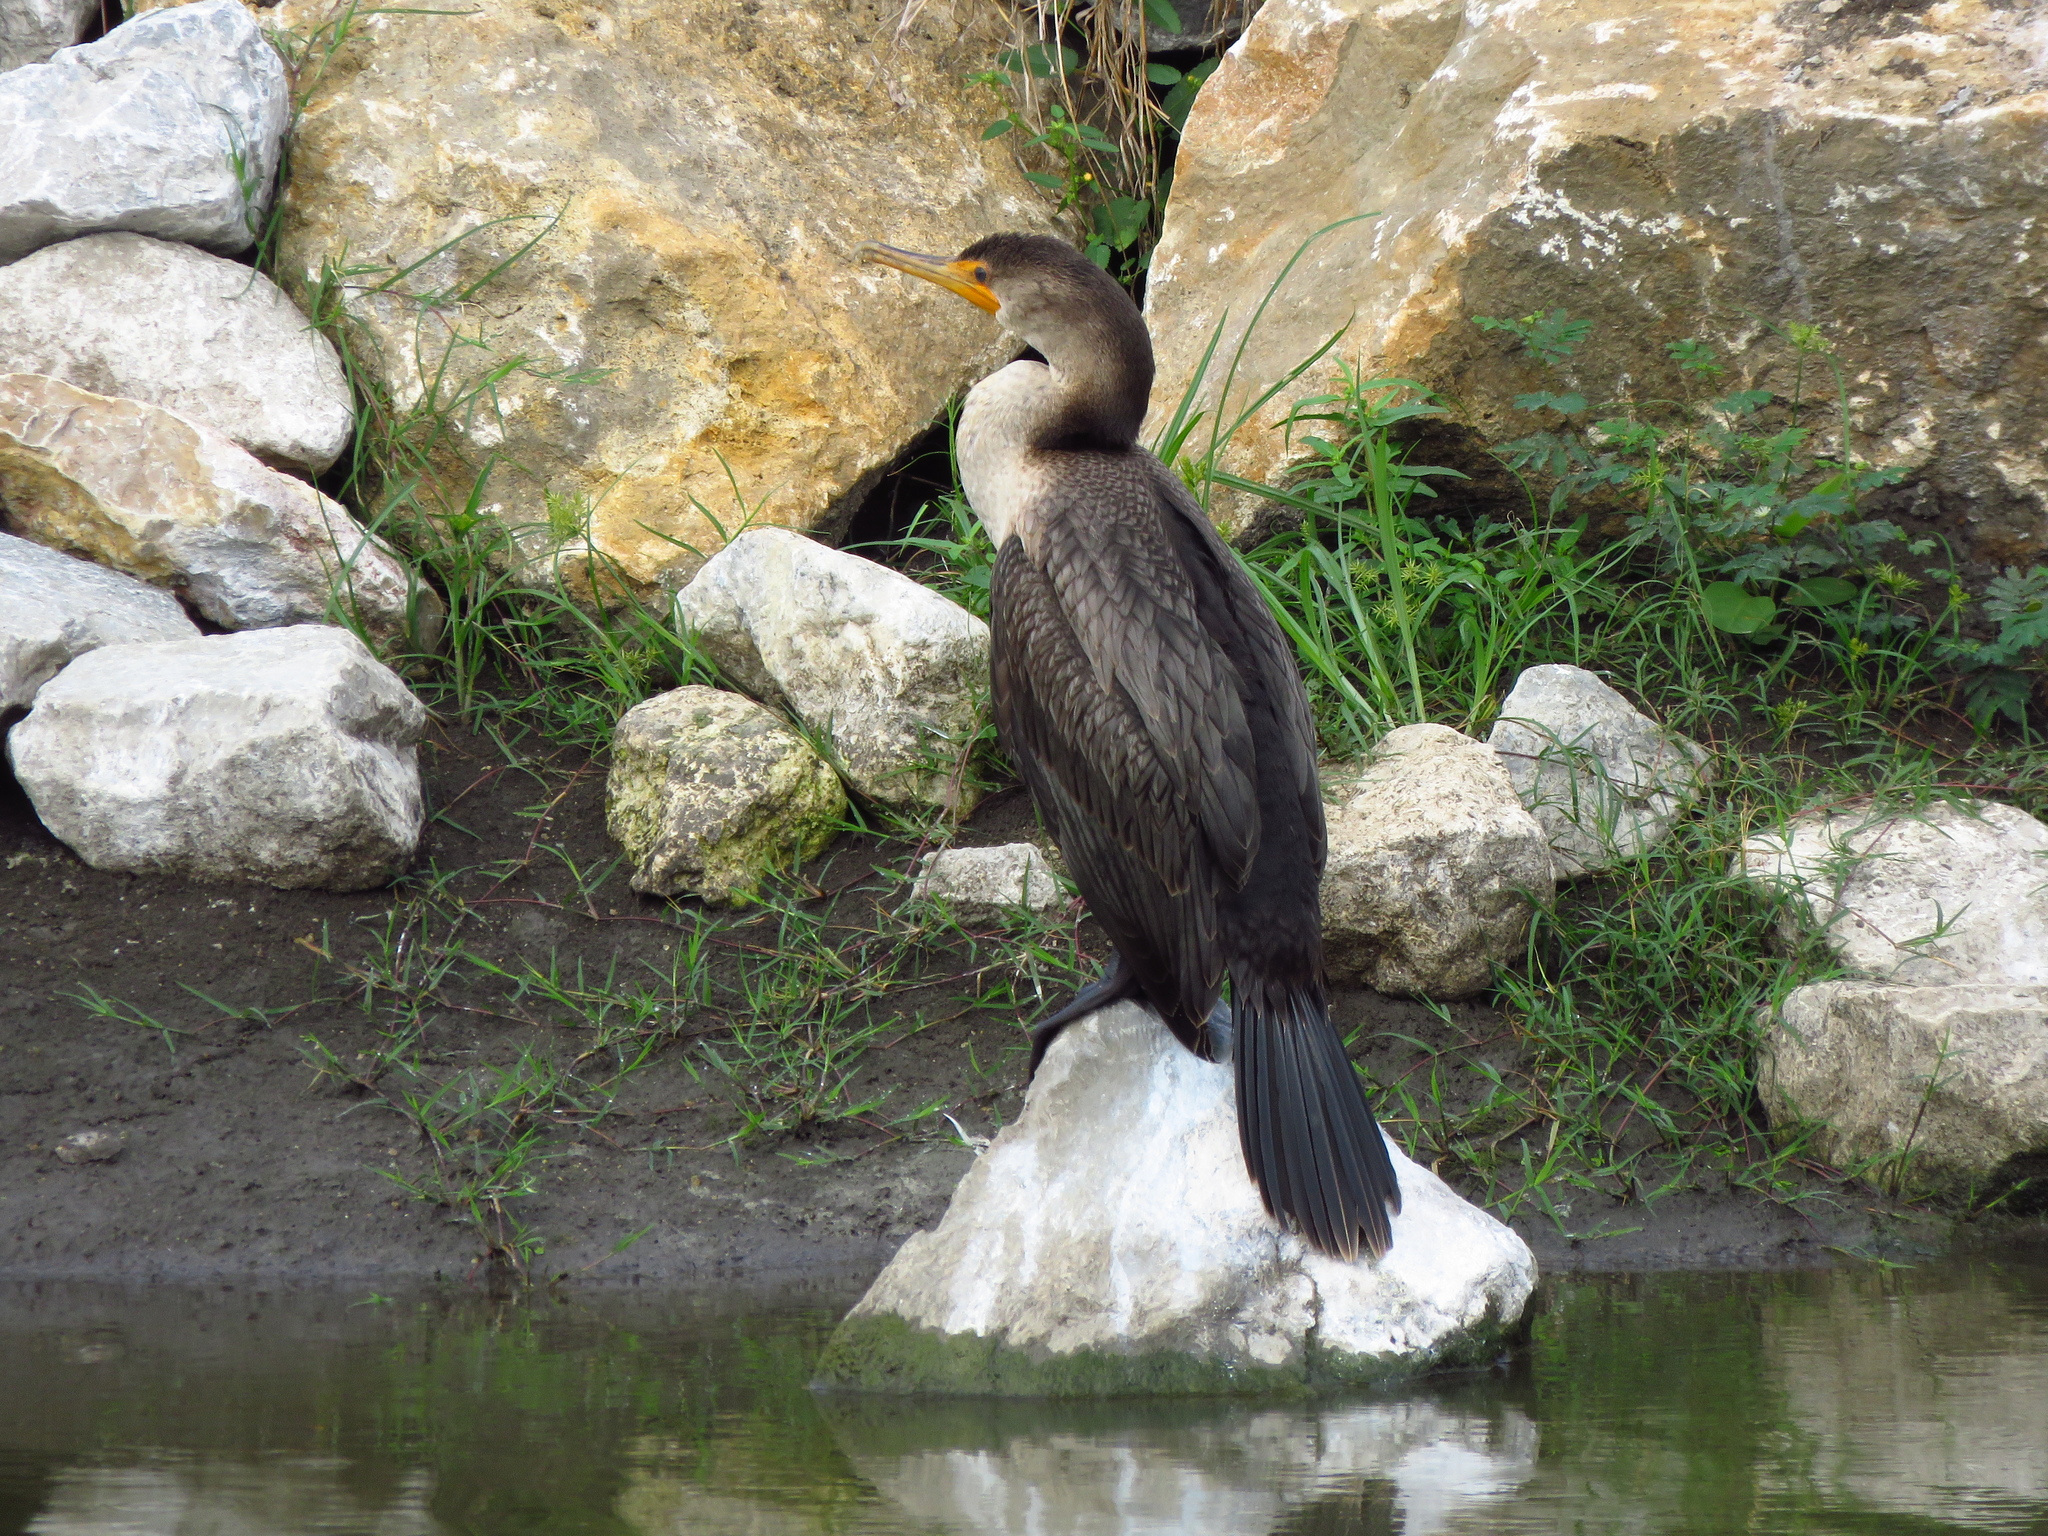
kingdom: Animalia
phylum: Chordata
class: Aves
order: Suliformes
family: Phalacrocoracidae
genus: Phalacrocorax
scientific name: Phalacrocorax auritus
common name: Double-crested cormorant
